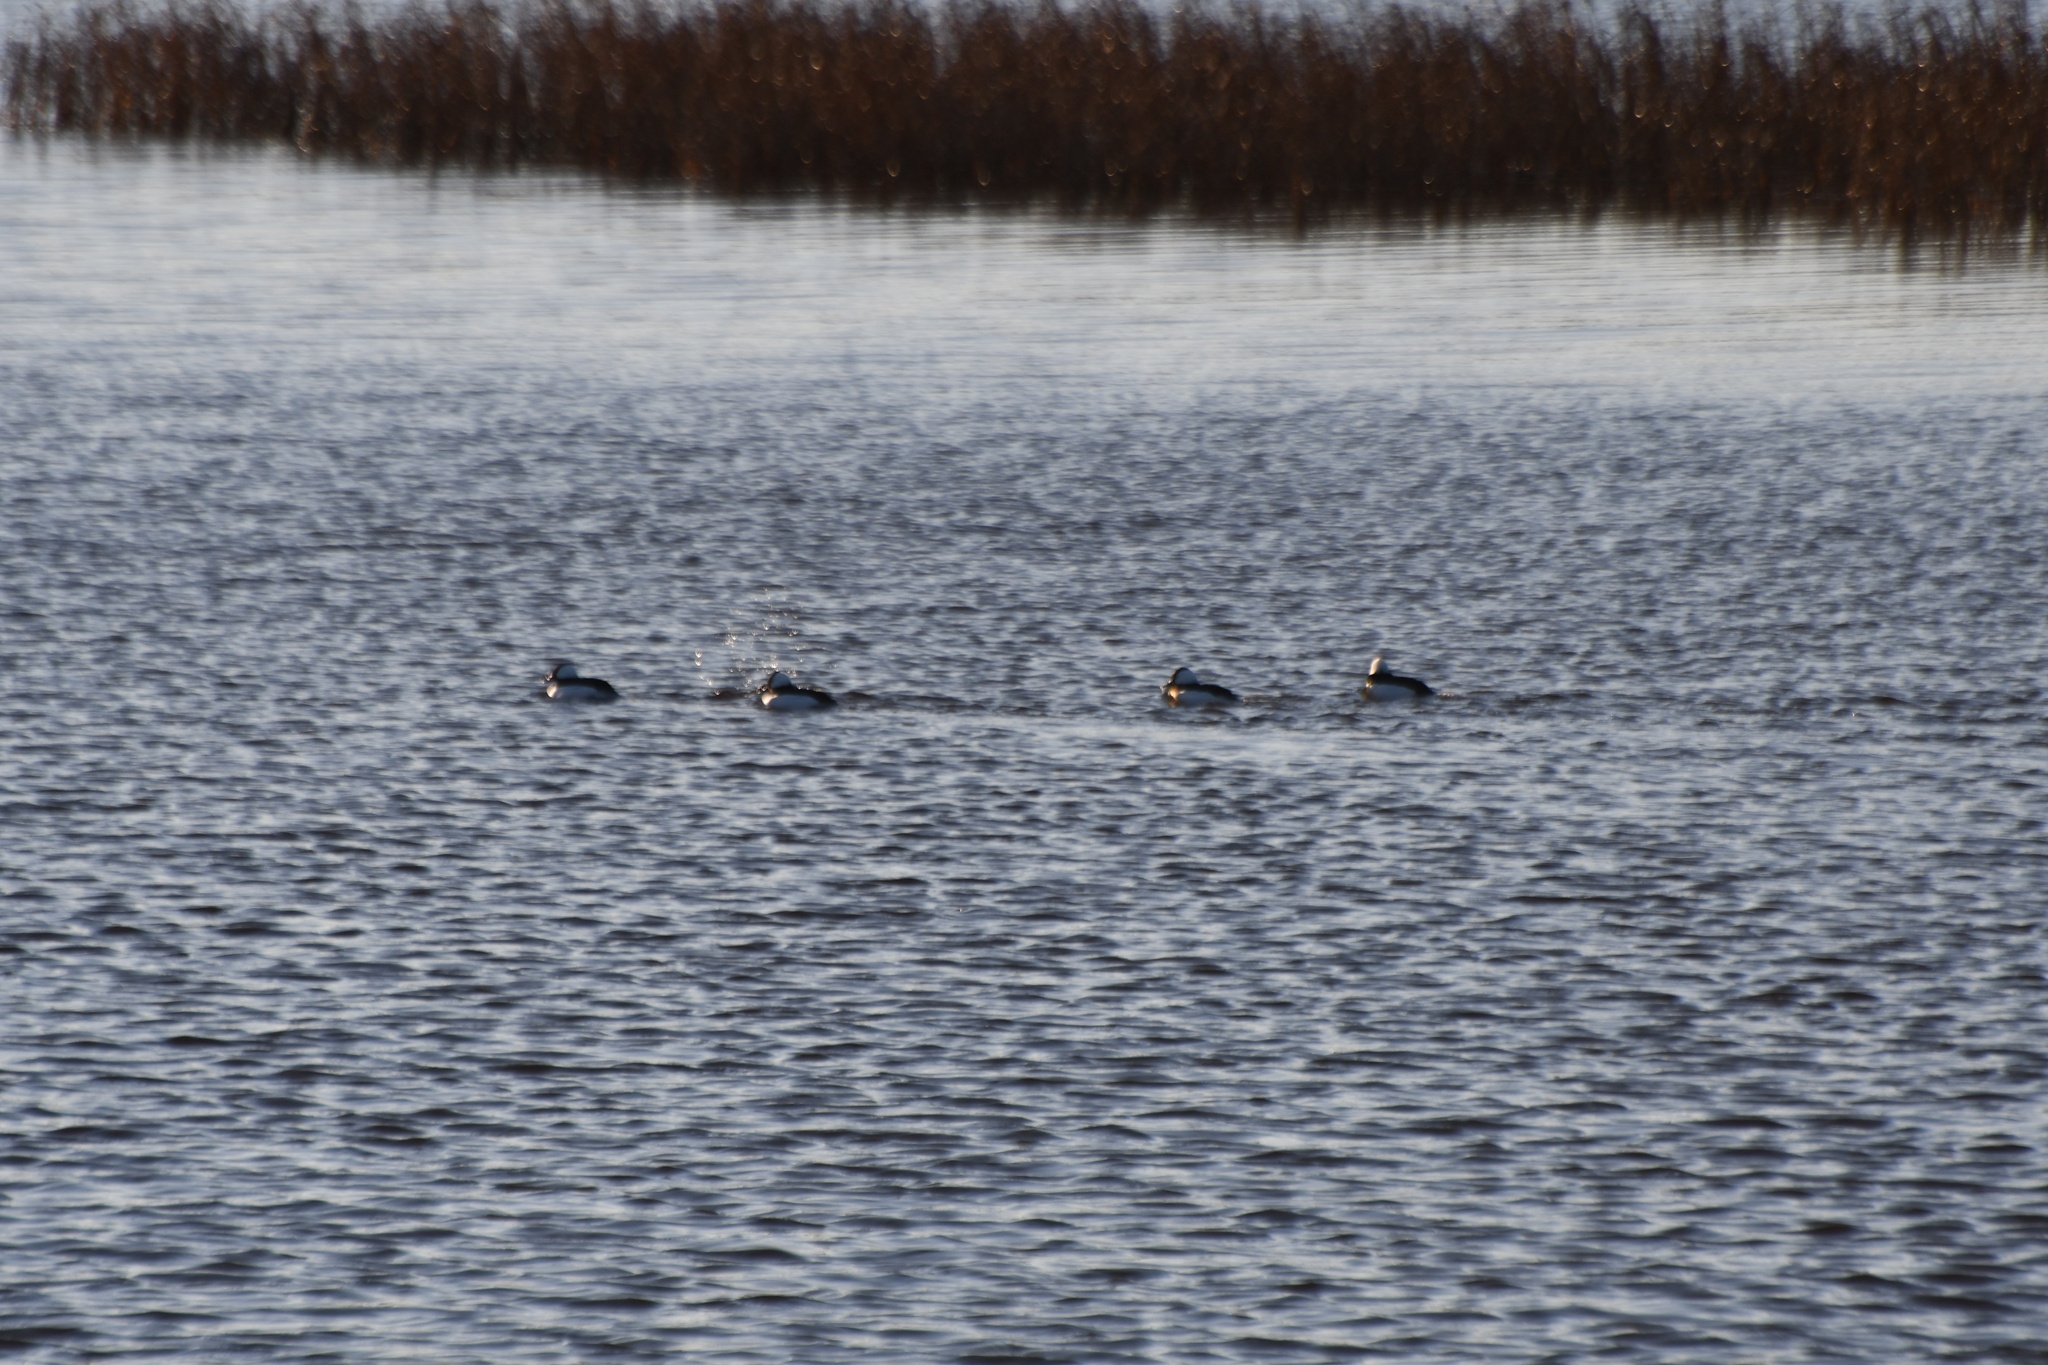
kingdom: Animalia
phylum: Chordata
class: Aves
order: Anseriformes
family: Anatidae
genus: Bucephala
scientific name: Bucephala albeola
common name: Bufflehead
